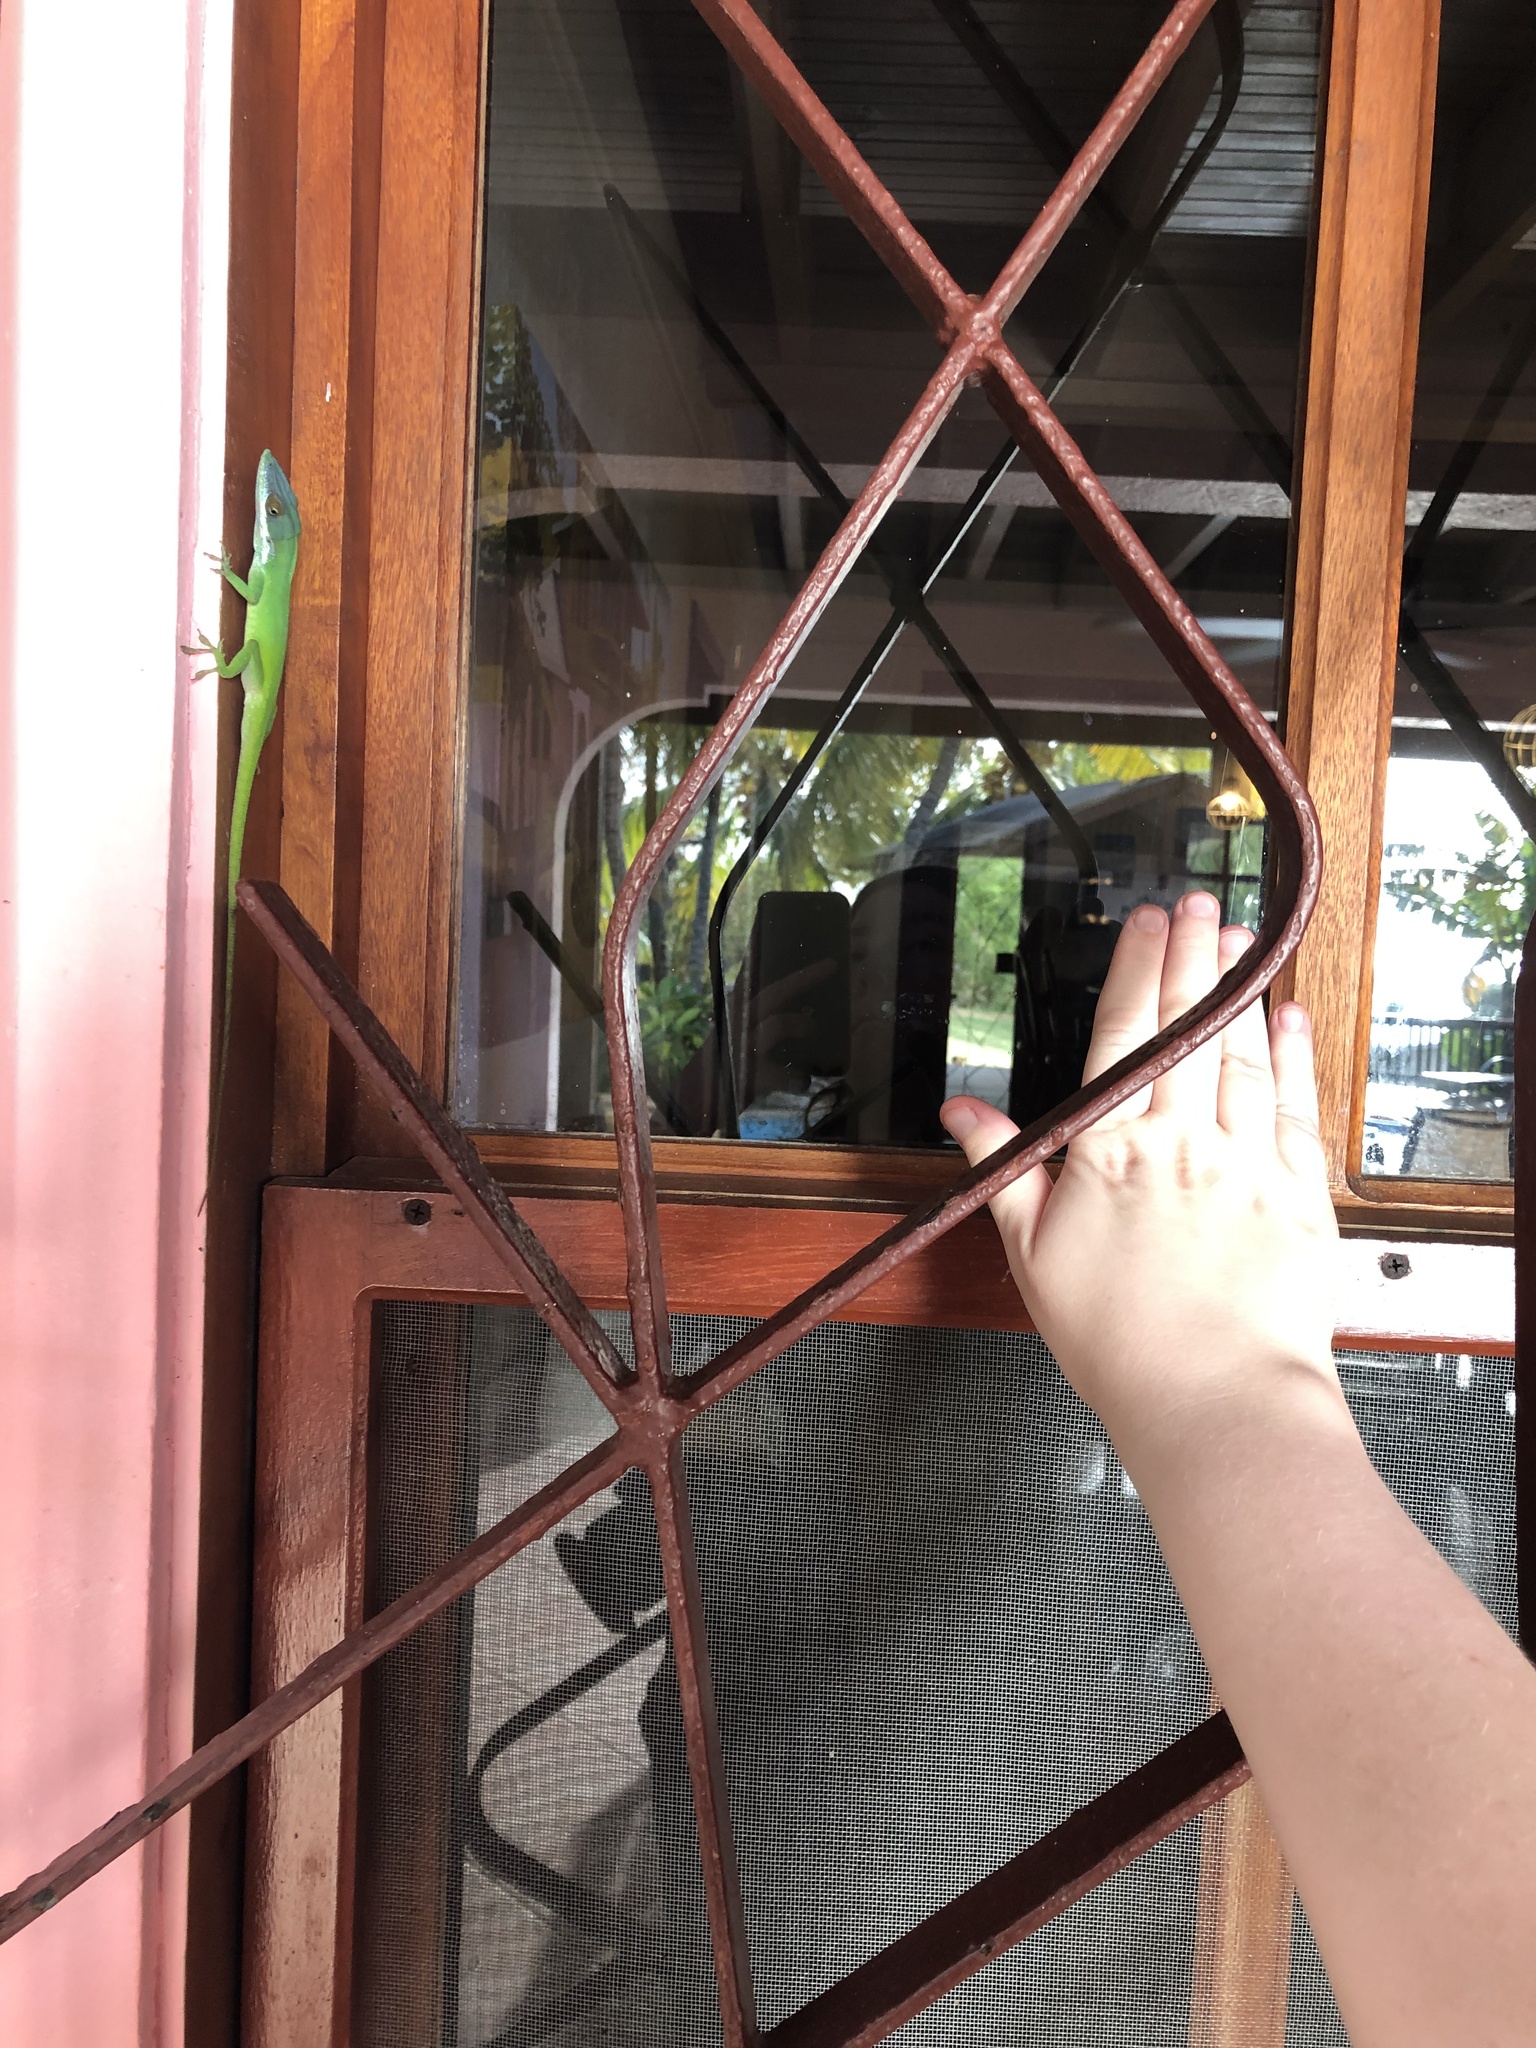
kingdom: Animalia
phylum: Chordata
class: Squamata
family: Dactyloidae
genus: Anolis
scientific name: Anolis allisoni
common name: Allison's anole
